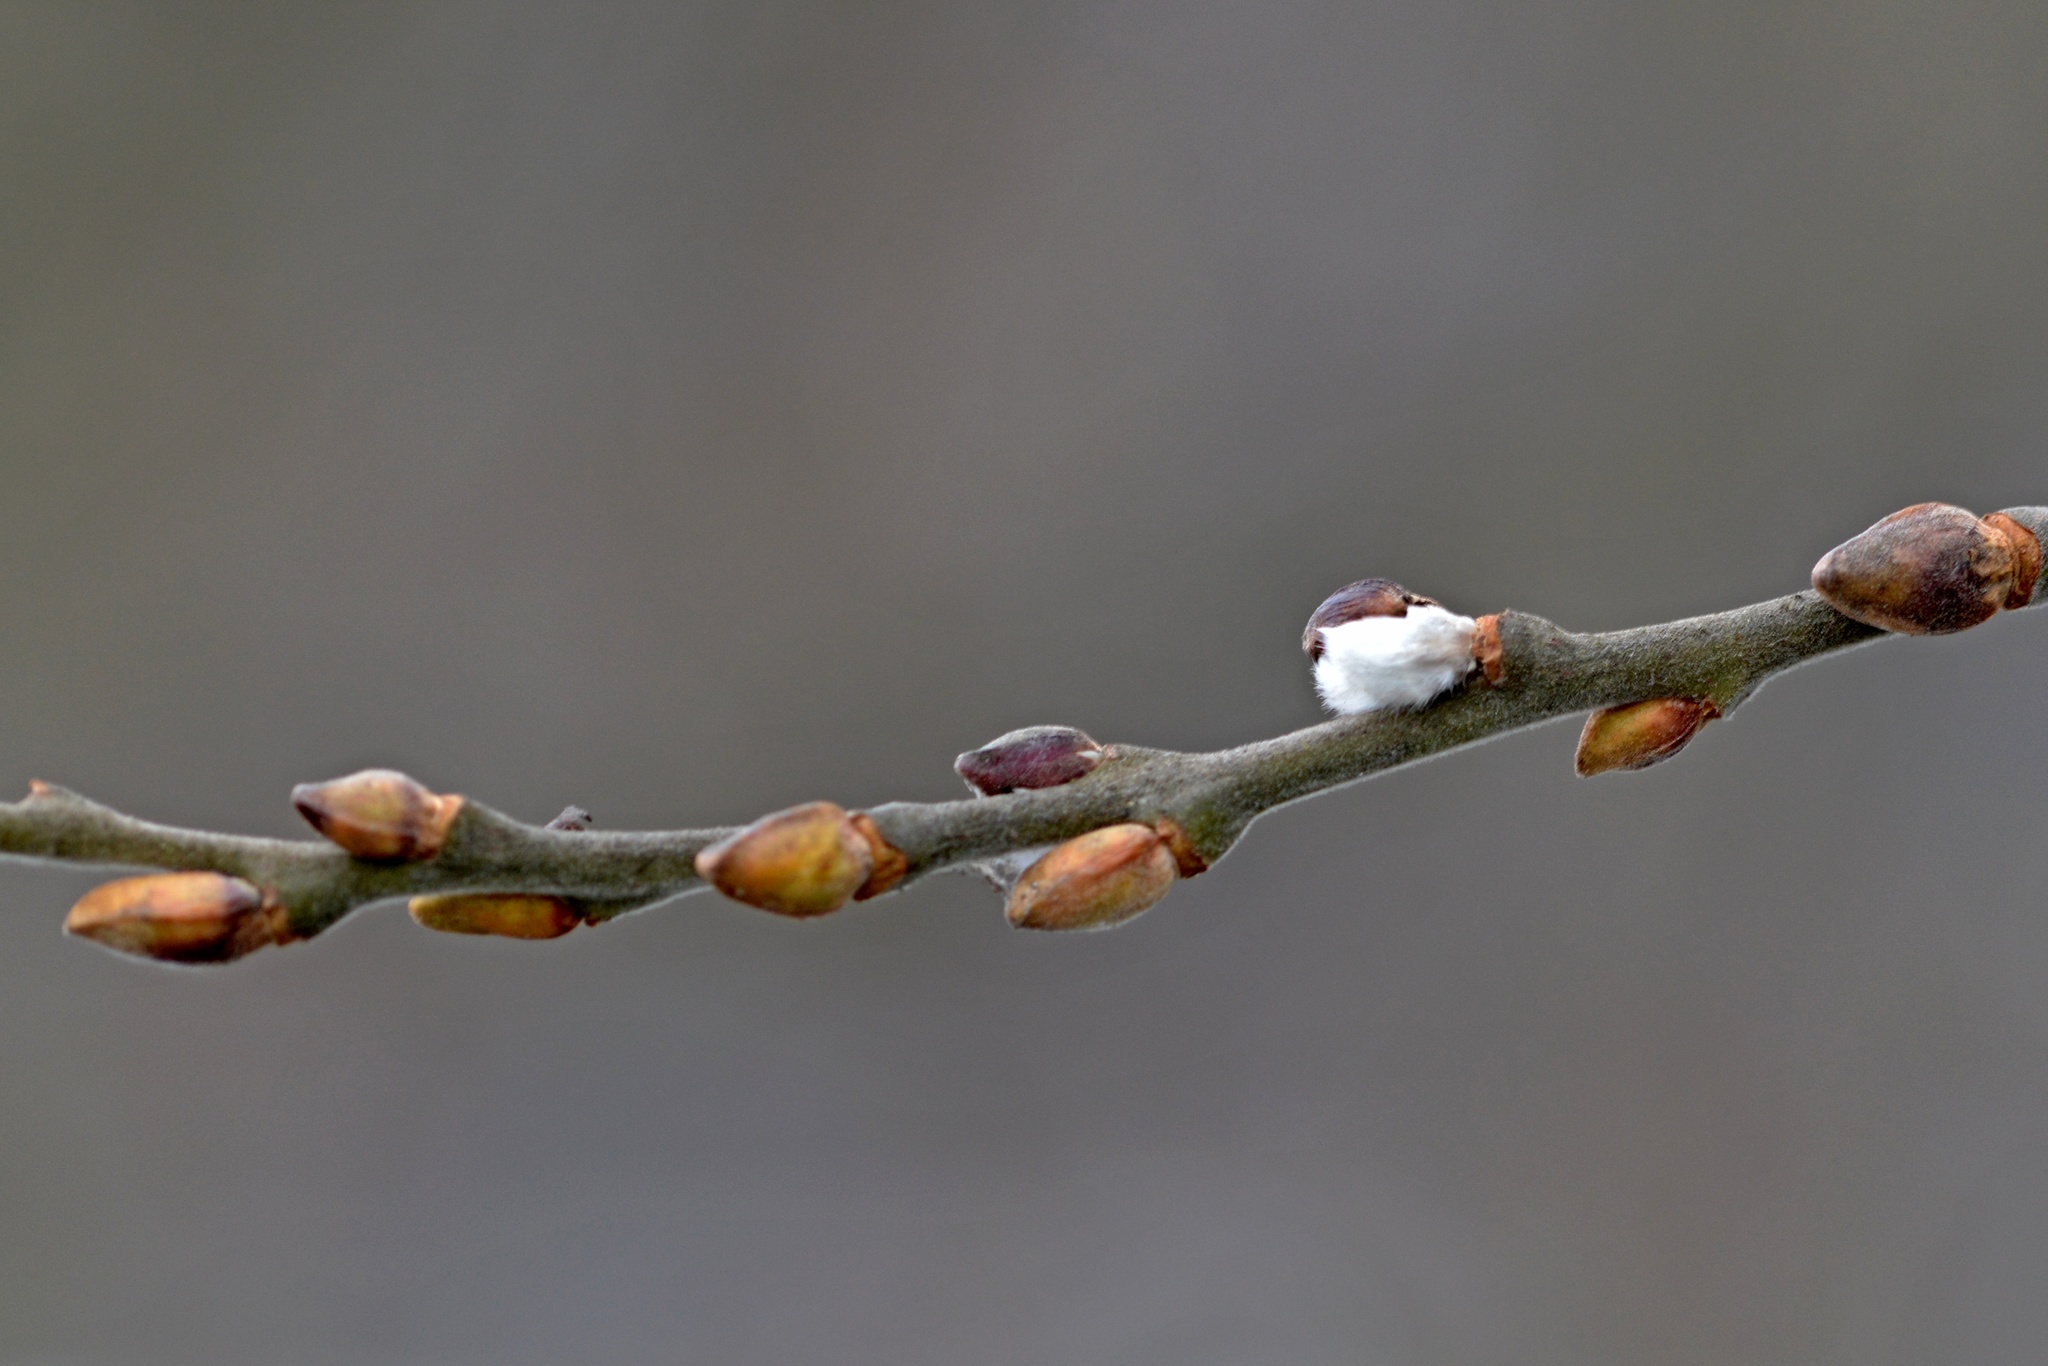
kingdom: Plantae
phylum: Tracheophyta
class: Magnoliopsida
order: Malpighiales
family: Salicaceae
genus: Salix
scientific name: Salix caprea
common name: Goat willow
